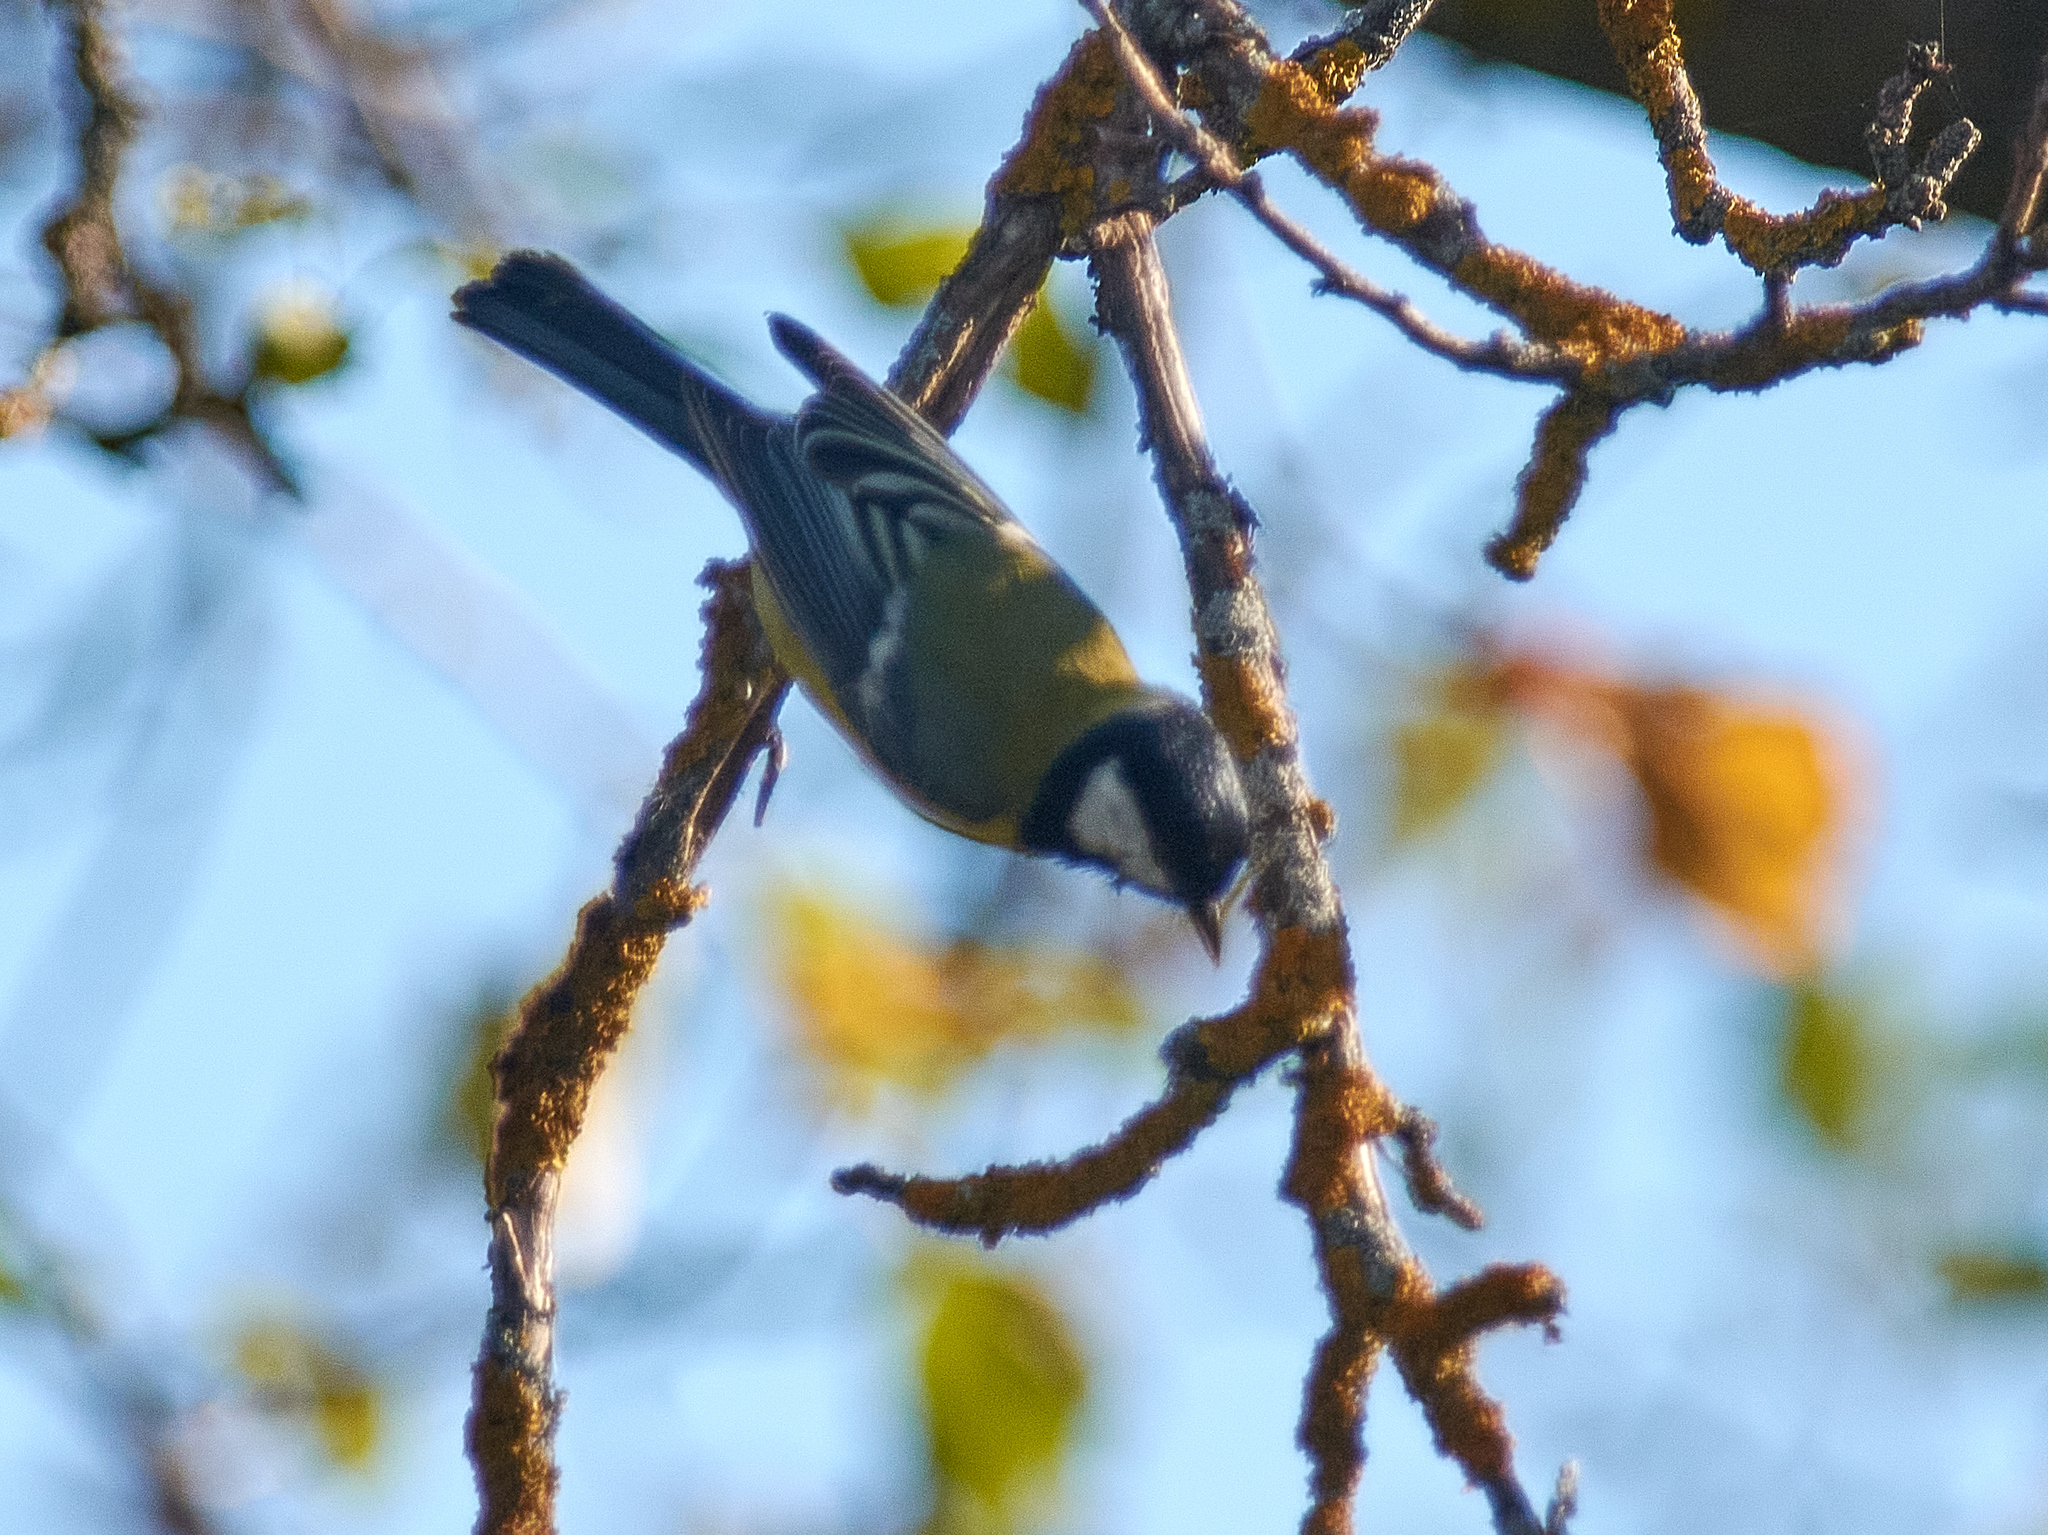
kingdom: Animalia
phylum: Chordata
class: Aves
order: Passeriformes
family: Paridae
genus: Parus
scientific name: Parus major
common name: Great tit
